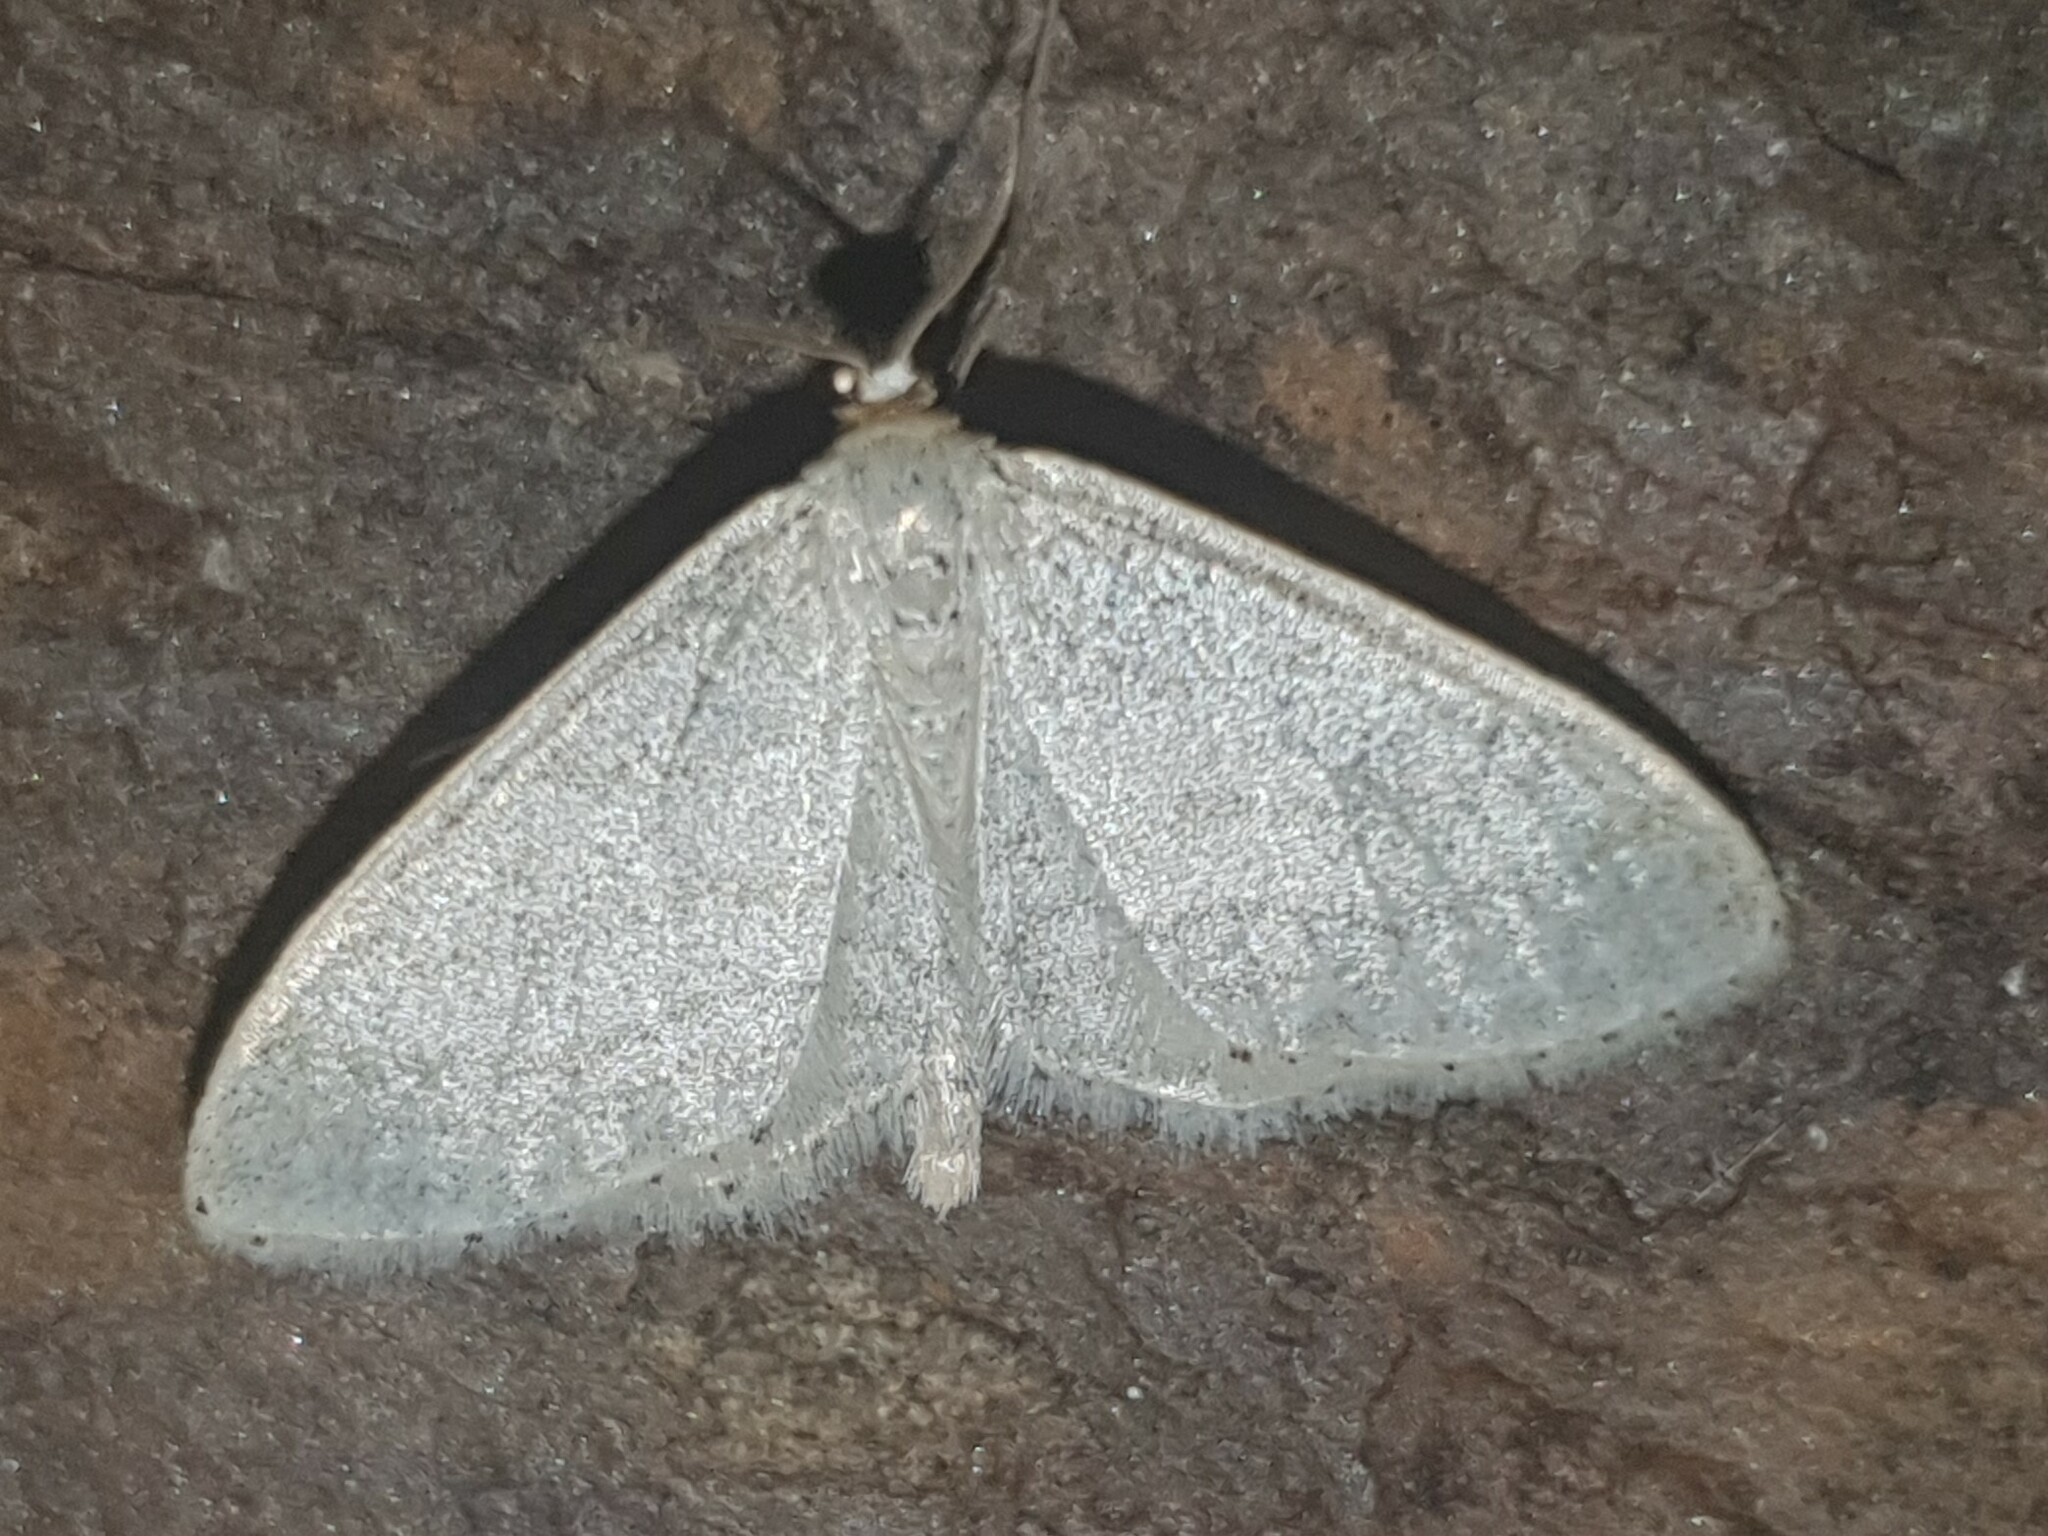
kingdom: Animalia
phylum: Arthropoda
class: Insecta
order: Lepidoptera
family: Geometridae
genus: Idaea
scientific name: Idaea subsericeata
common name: Satin wave
